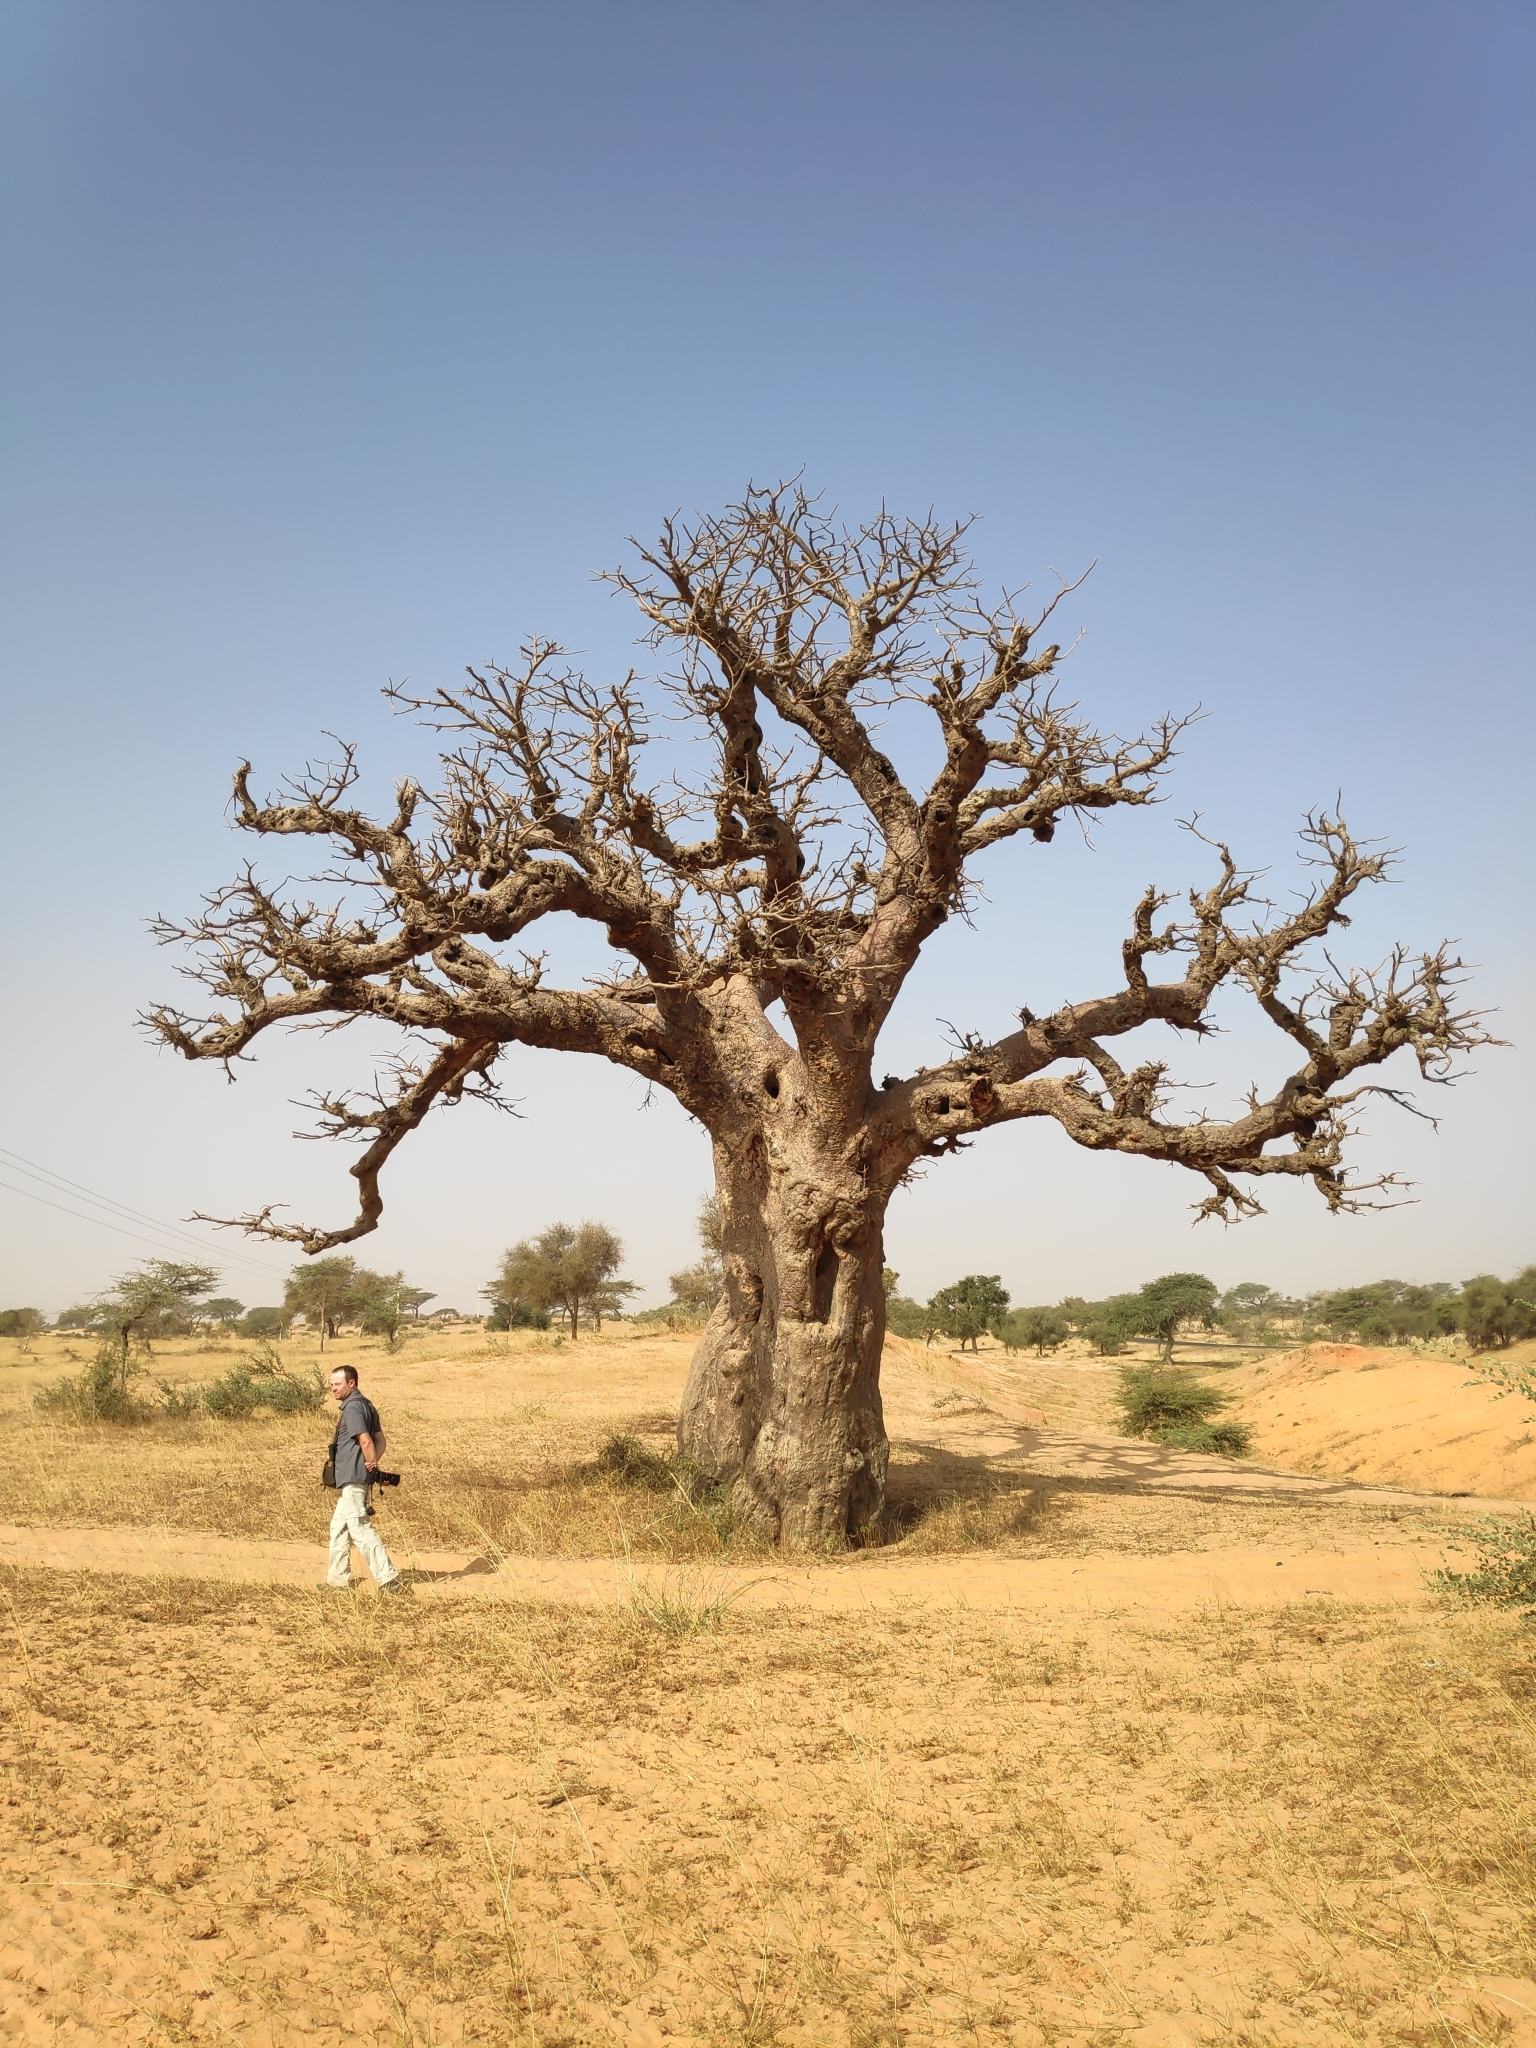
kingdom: Plantae
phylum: Tracheophyta
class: Magnoliopsida
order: Malvales
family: Malvaceae
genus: Adansonia
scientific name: Adansonia digitata
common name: Dead-rat-tree
